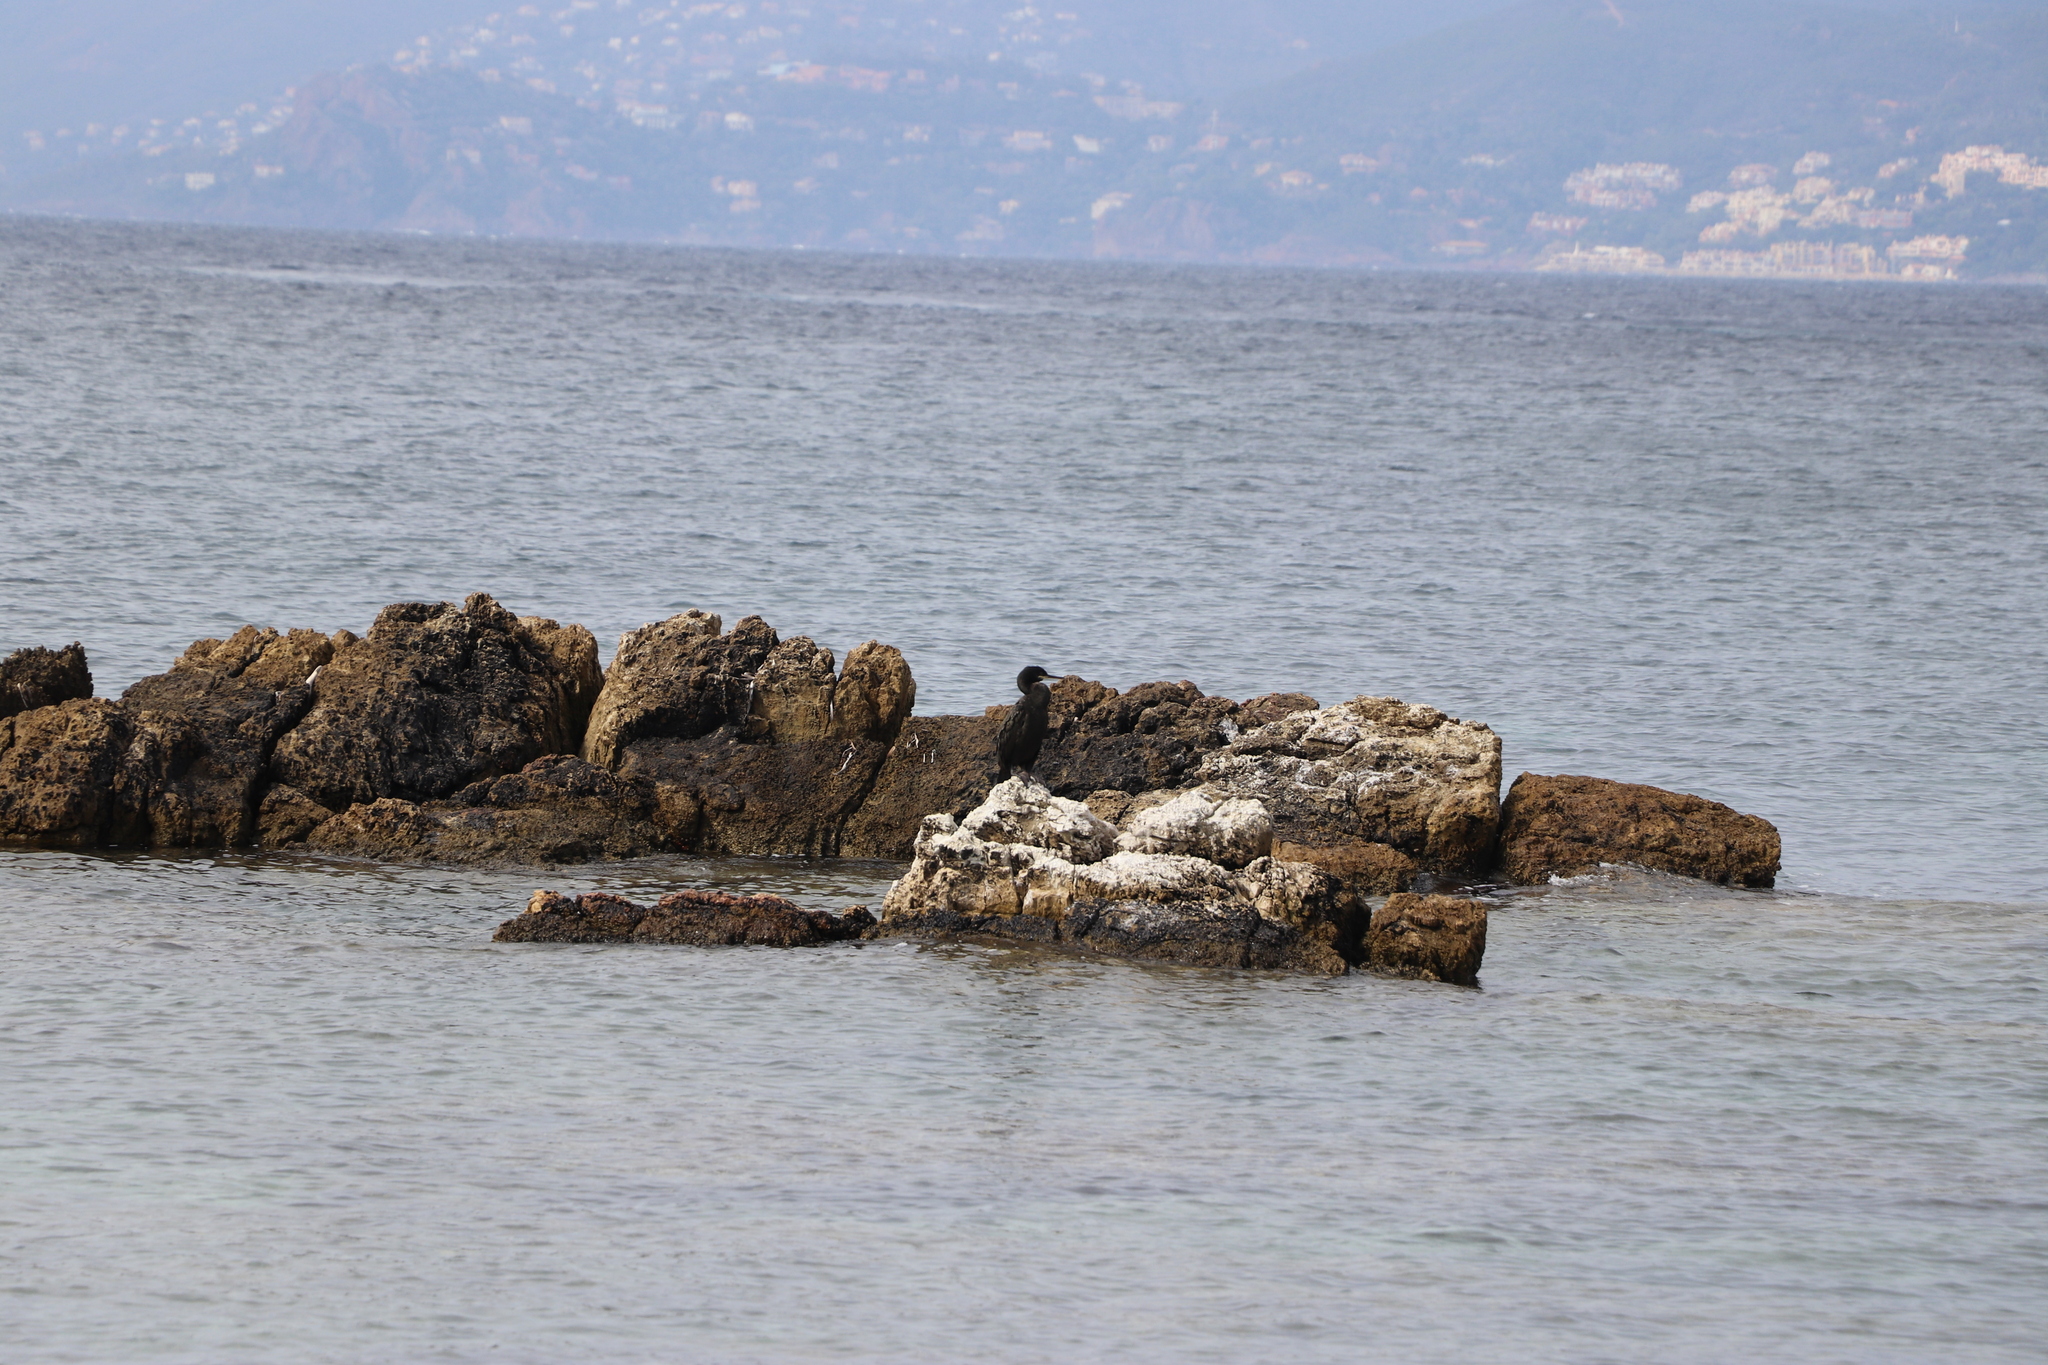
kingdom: Animalia
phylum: Chordata
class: Aves
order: Suliformes
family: Phalacrocoracidae
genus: Phalacrocorax
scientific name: Phalacrocorax aristotelis
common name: European shag
